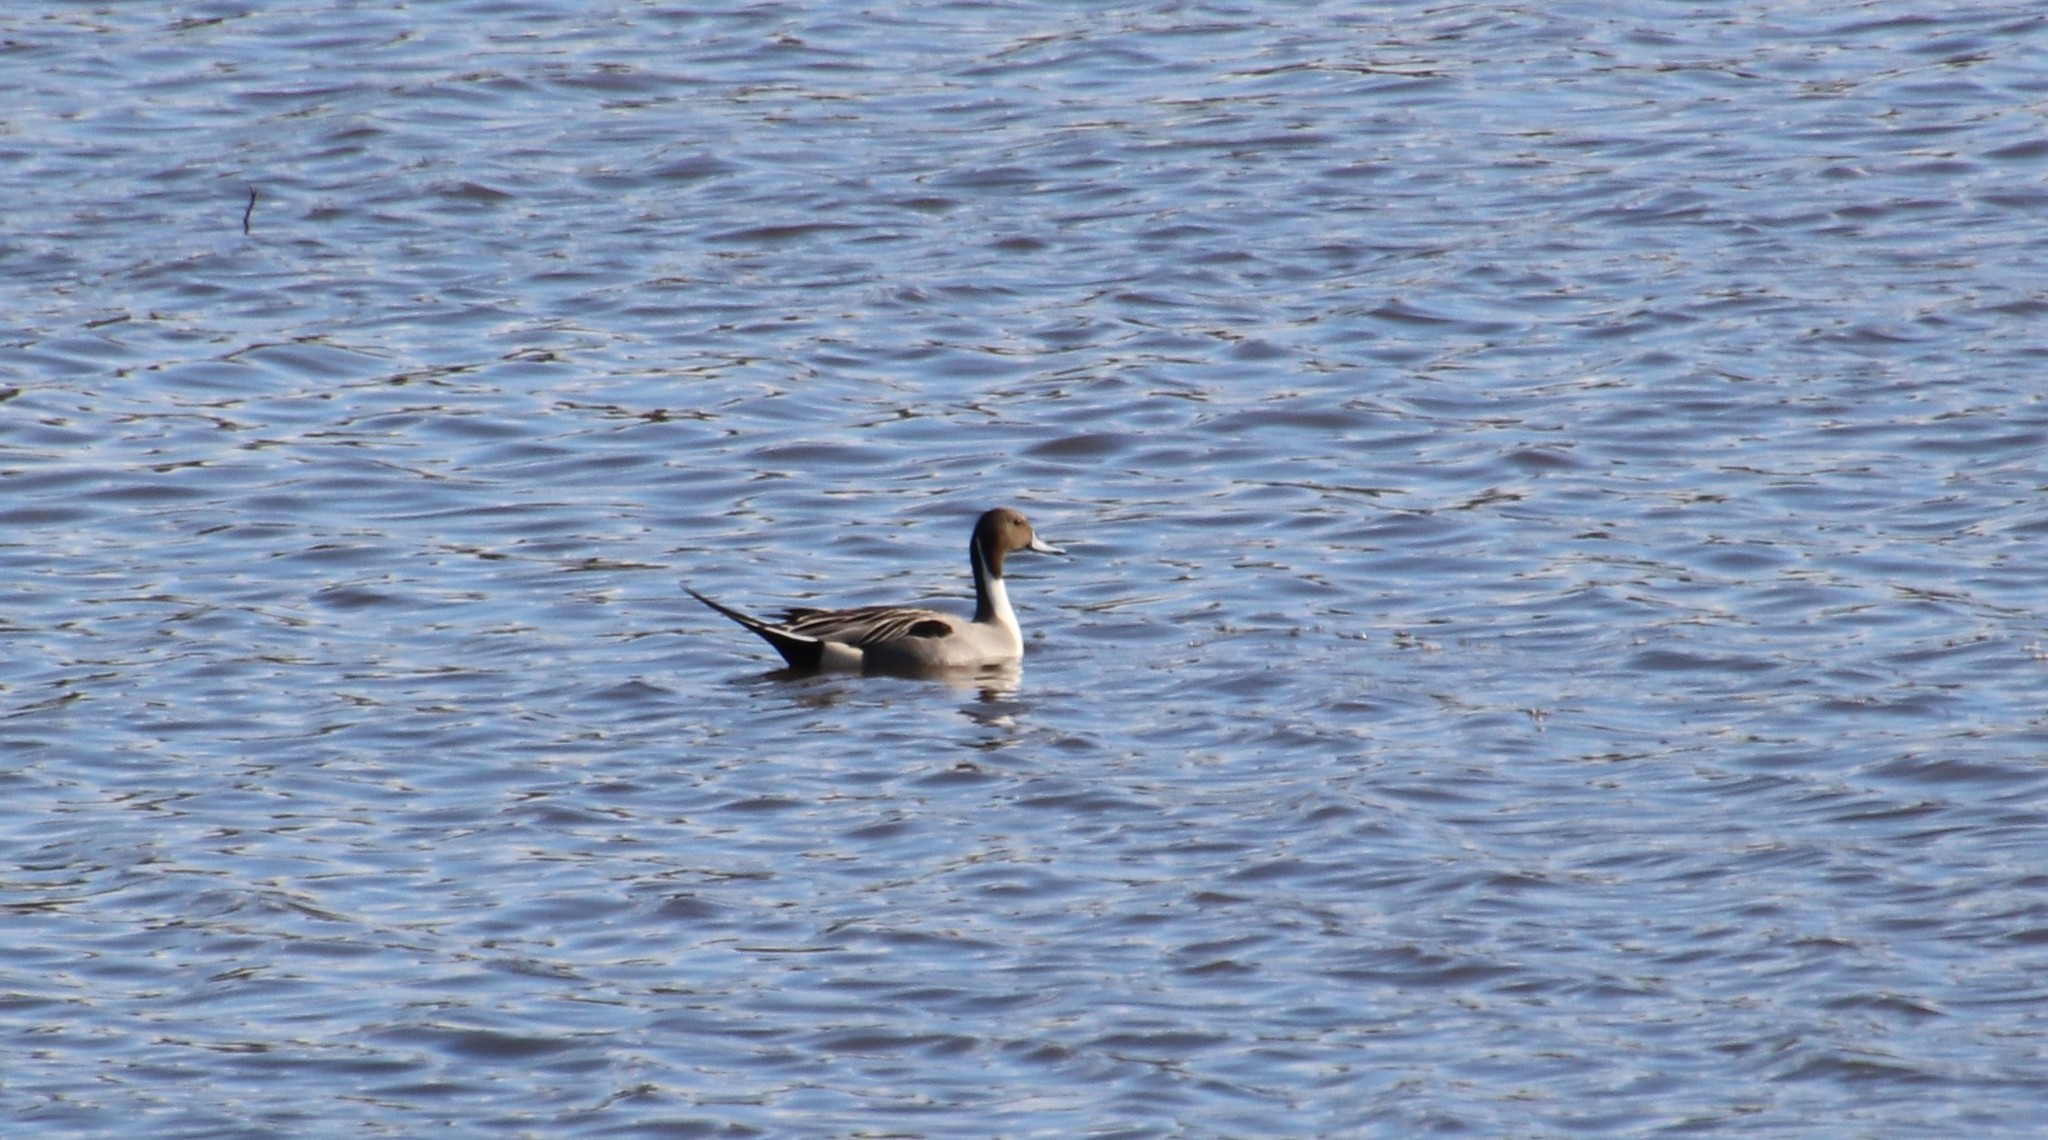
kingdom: Animalia
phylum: Chordata
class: Aves
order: Anseriformes
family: Anatidae
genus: Anas
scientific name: Anas acuta
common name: Northern pintail
